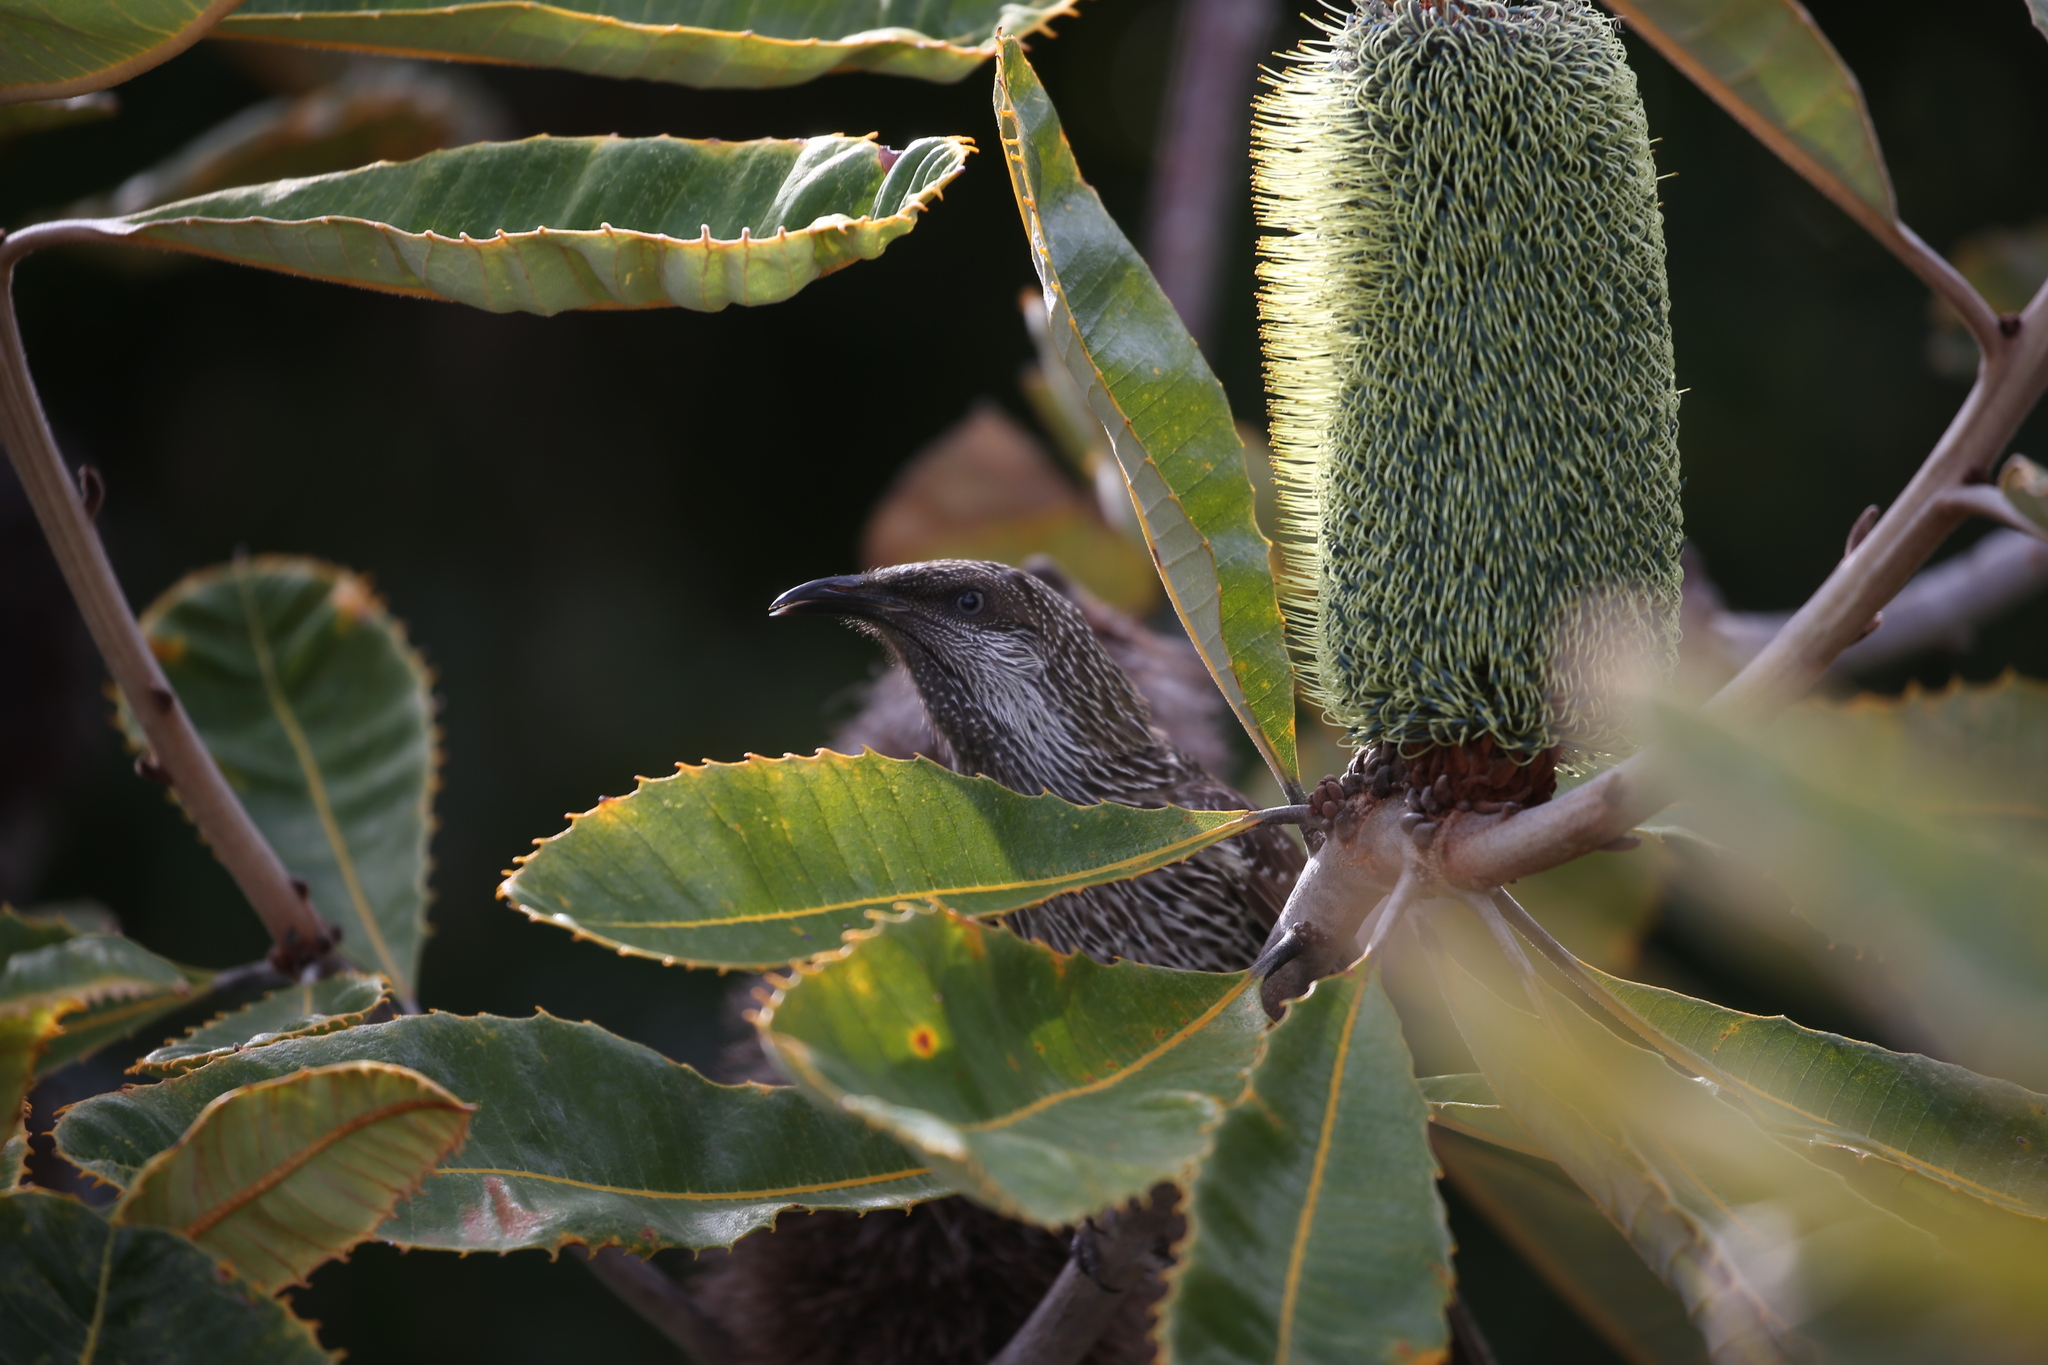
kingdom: Animalia
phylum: Chordata
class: Aves
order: Passeriformes
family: Meliphagidae
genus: Anthochaera
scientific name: Anthochaera chrysoptera
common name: Little wattlebird
